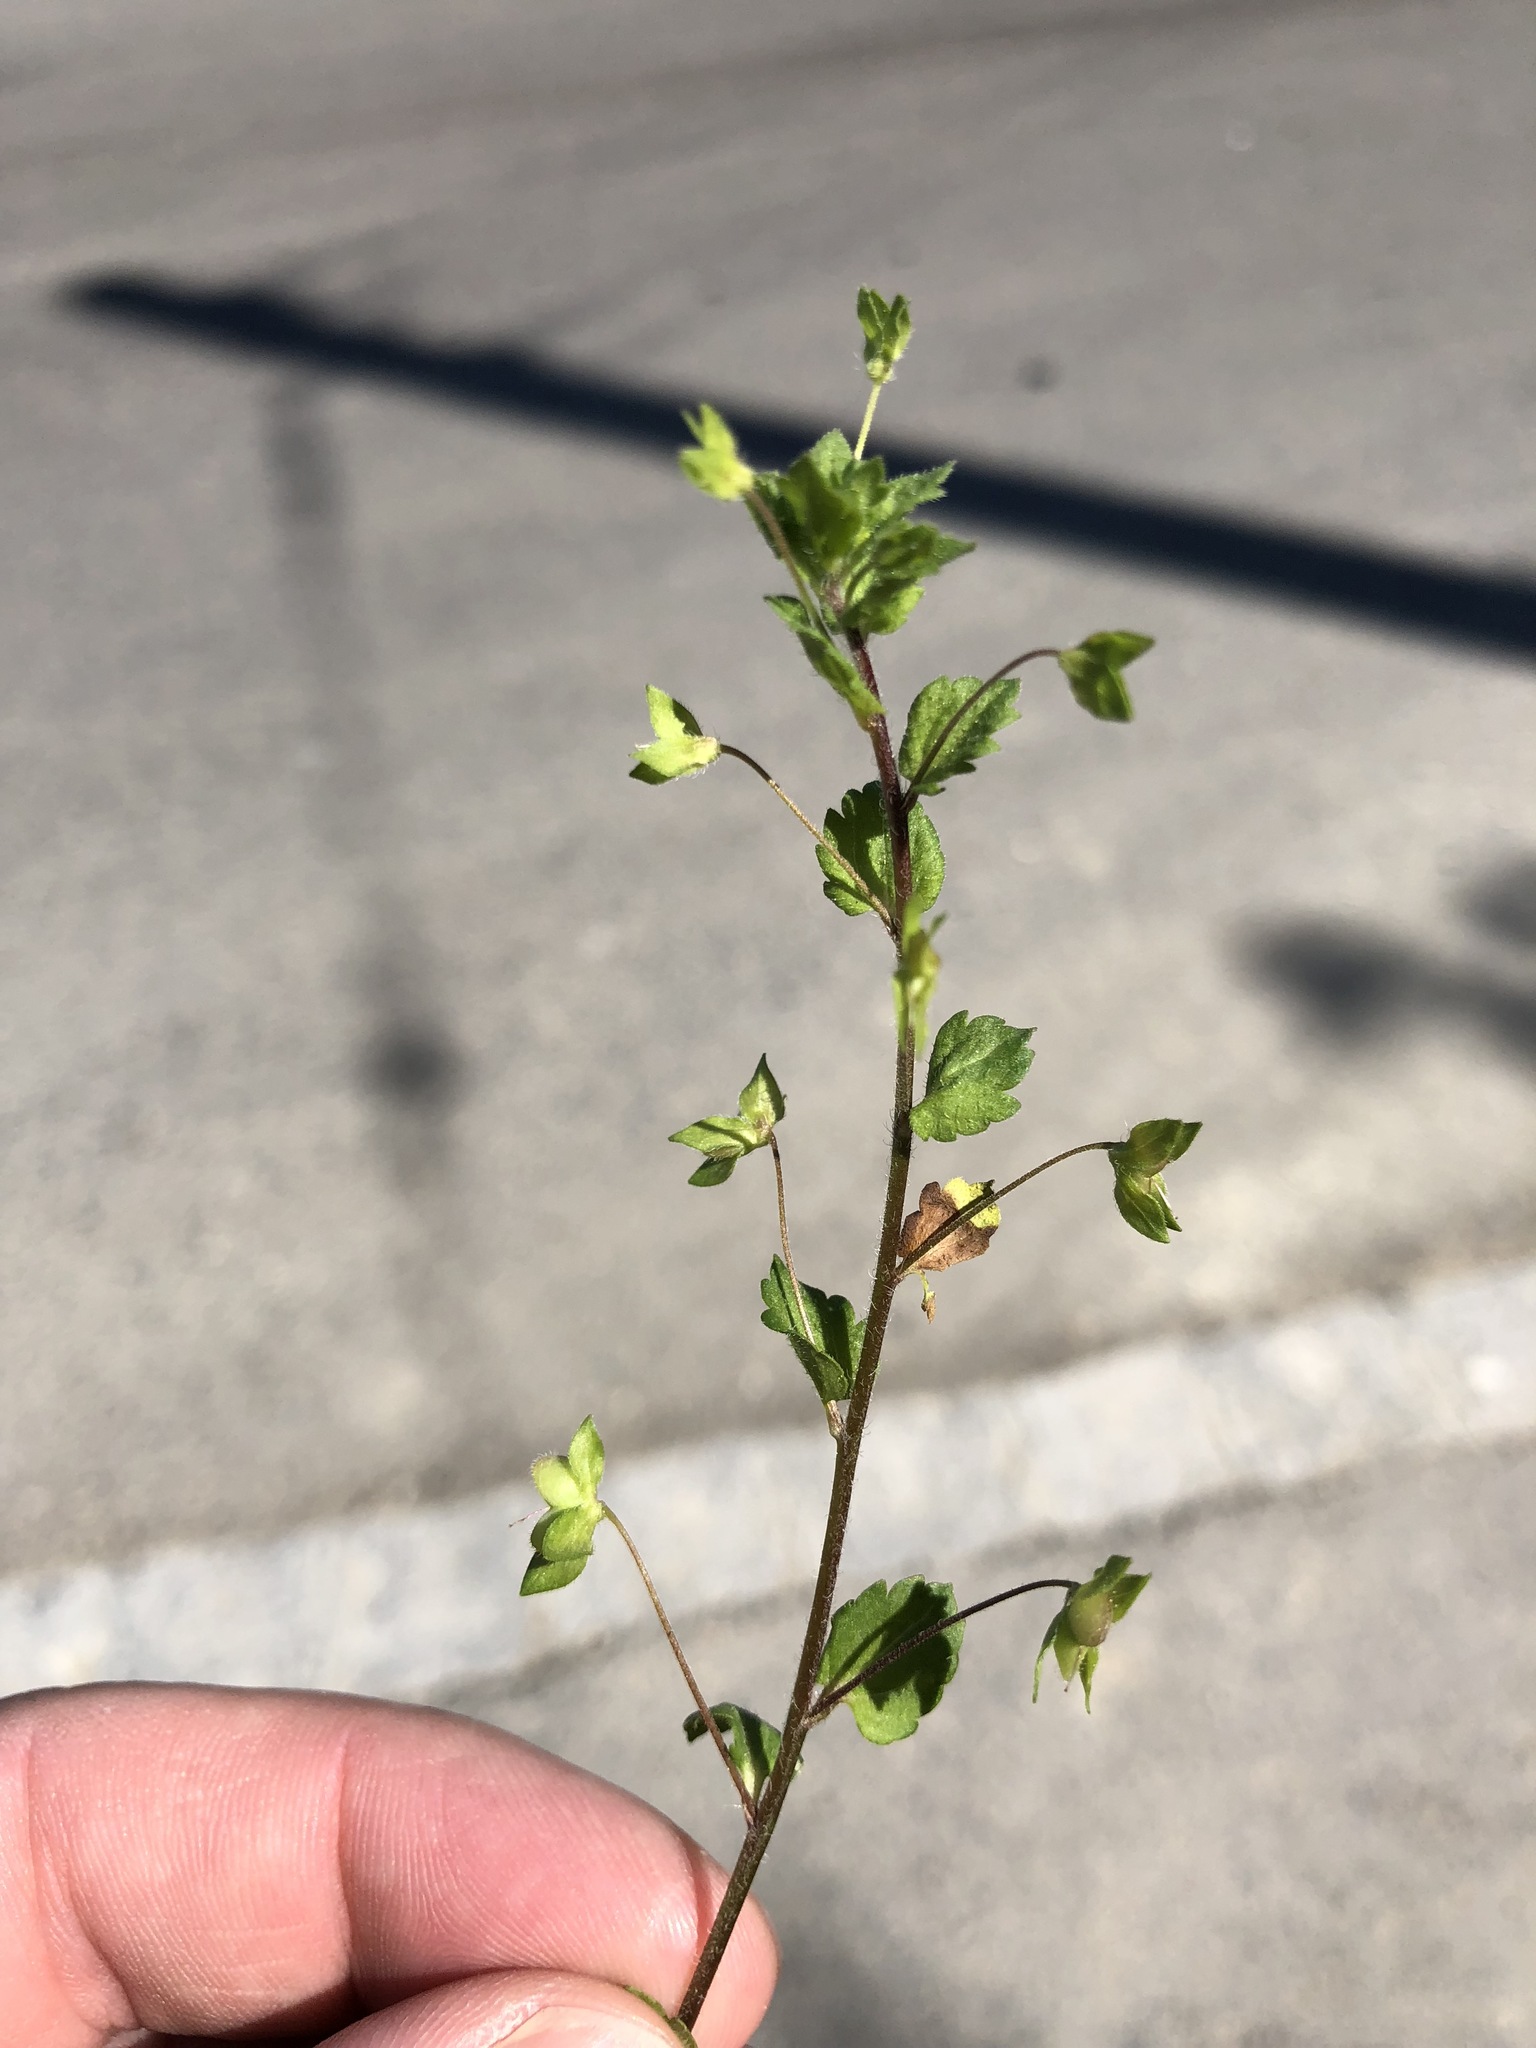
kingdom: Plantae
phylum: Tracheophyta
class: Magnoliopsida
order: Lamiales
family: Plantaginaceae
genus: Veronica
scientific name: Veronica persica
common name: Common field-speedwell
